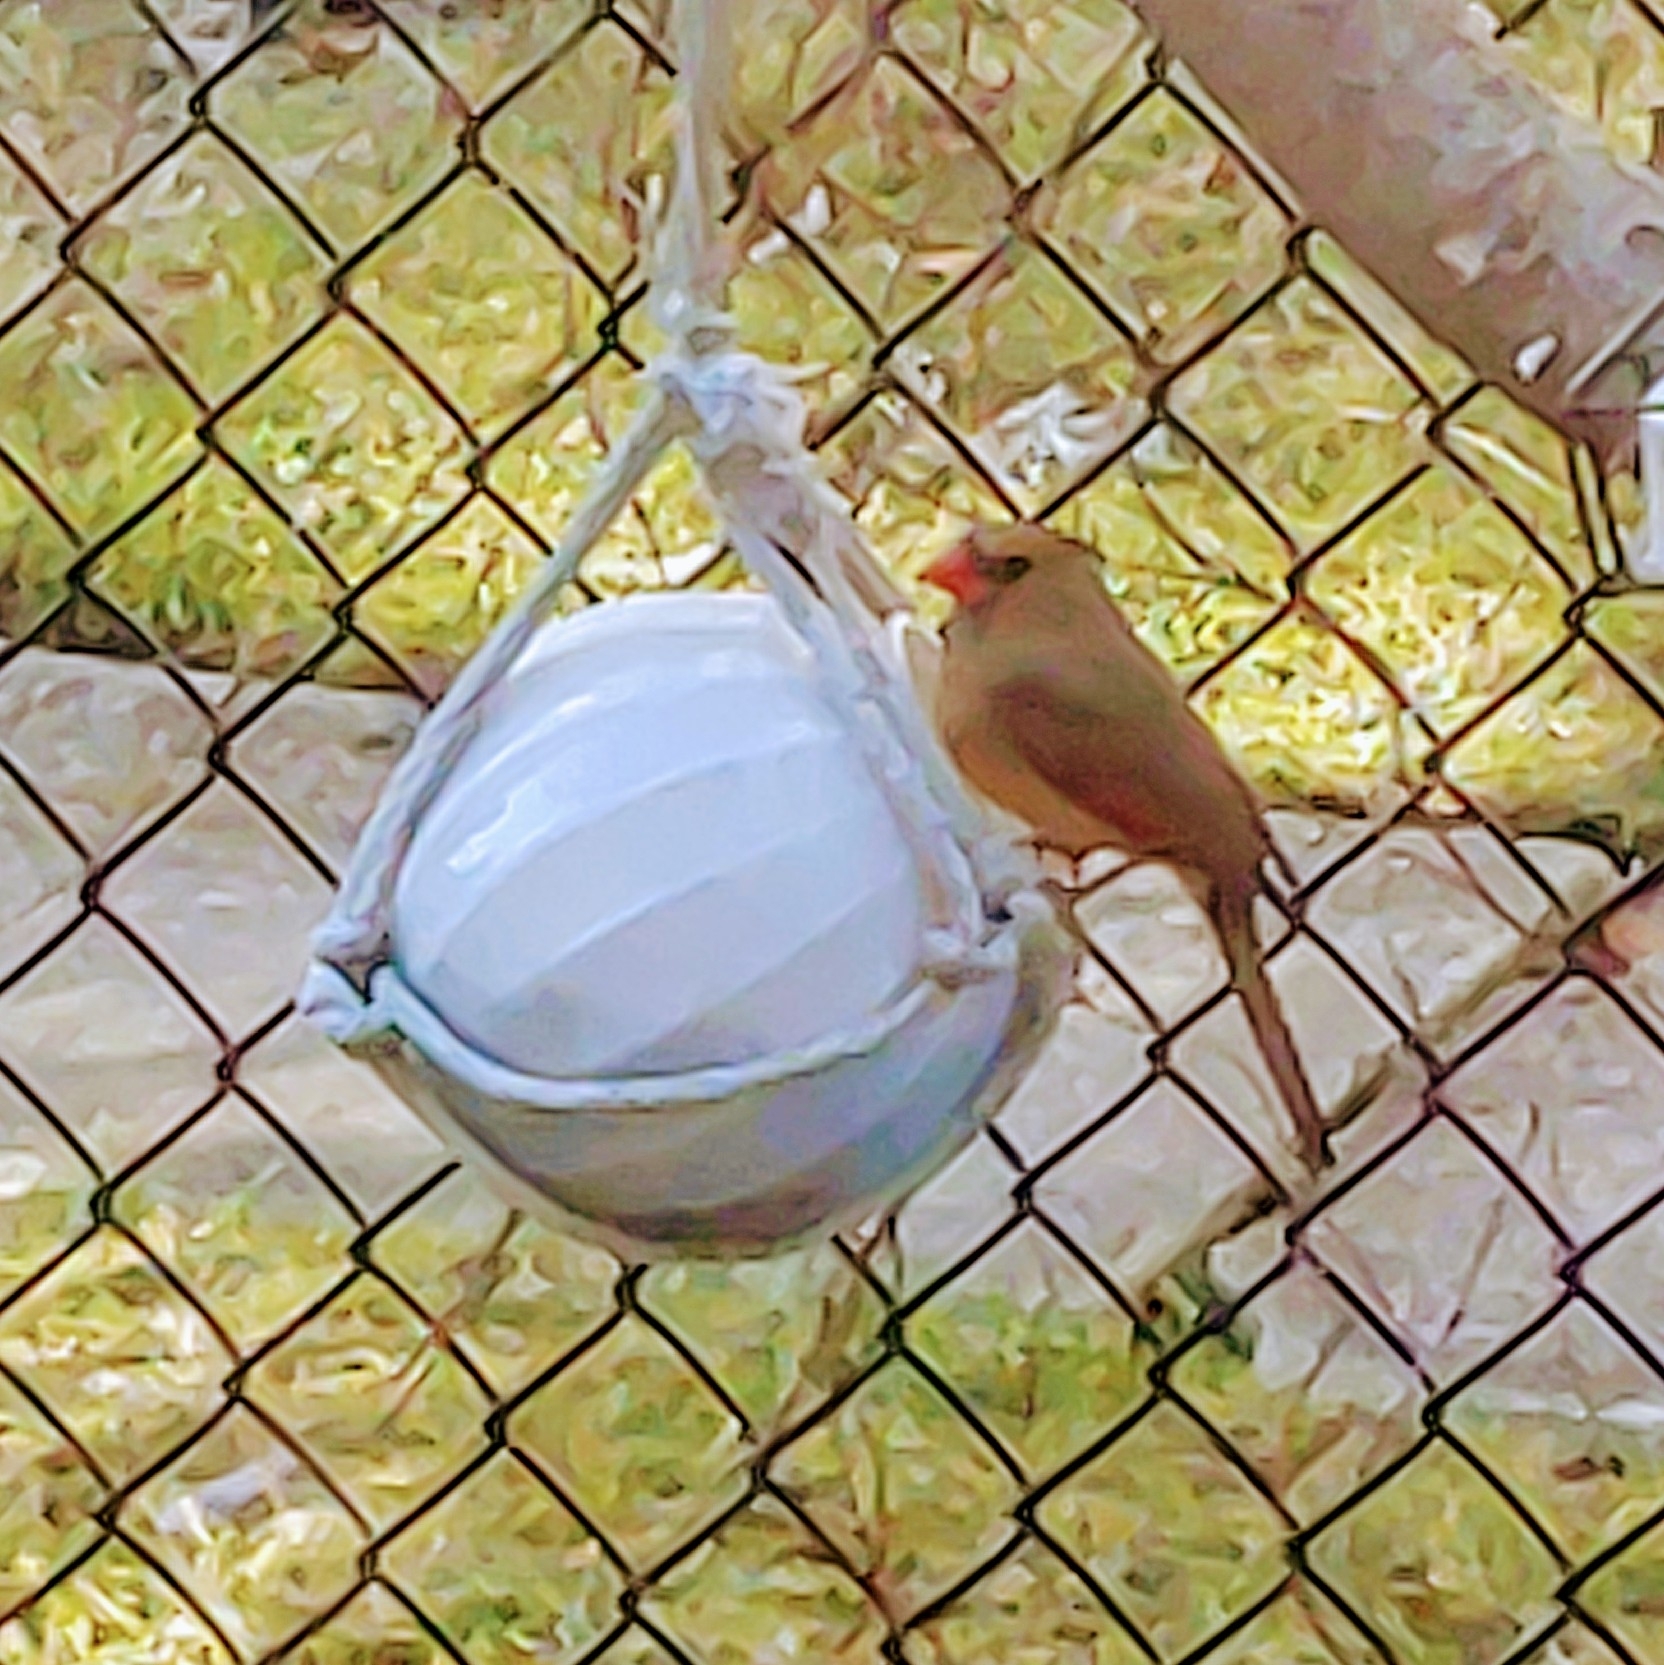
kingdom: Animalia
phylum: Chordata
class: Aves
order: Passeriformes
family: Cardinalidae
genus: Cardinalis
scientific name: Cardinalis cardinalis
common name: Northern cardinal
